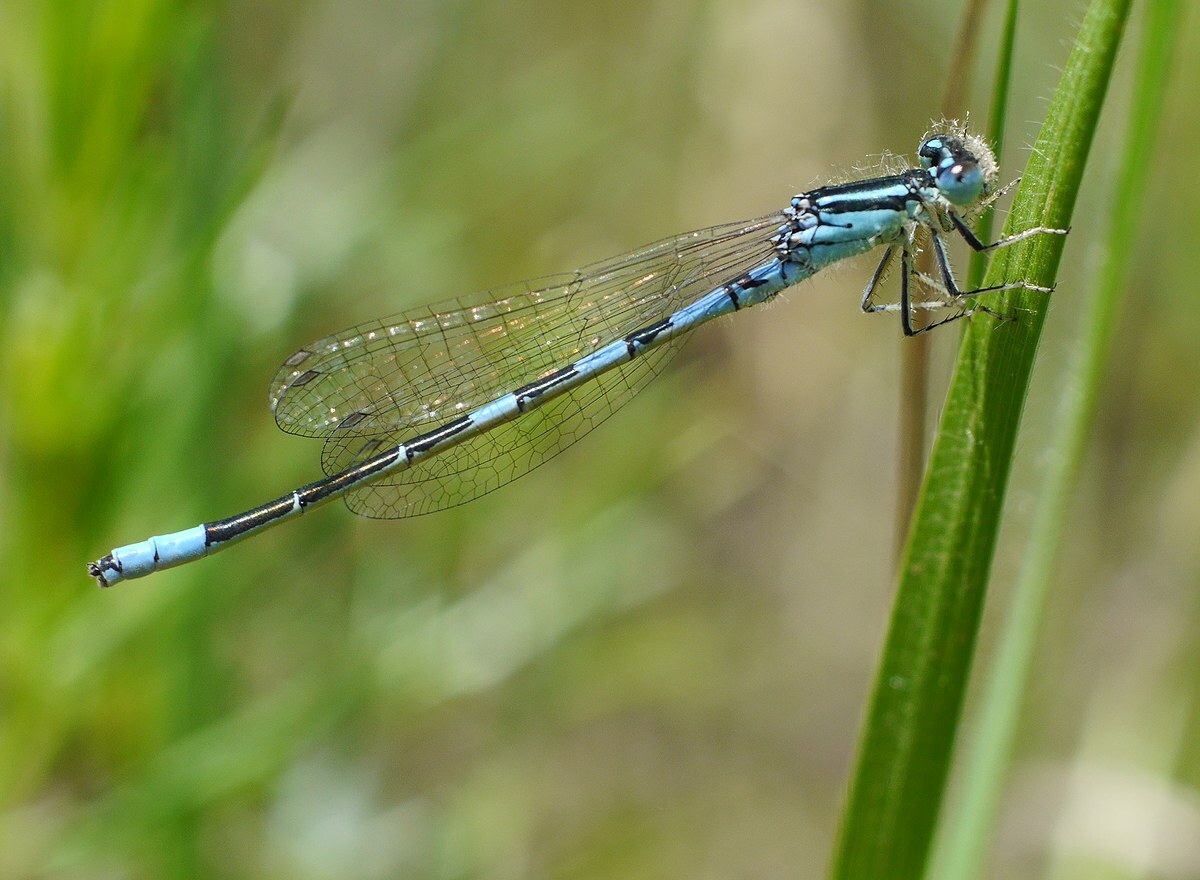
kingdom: Animalia
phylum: Arthropoda
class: Insecta
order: Odonata
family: Coenagrionidae
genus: Coenagrion
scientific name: Coenagrion scitulum
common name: Dainty bluet
